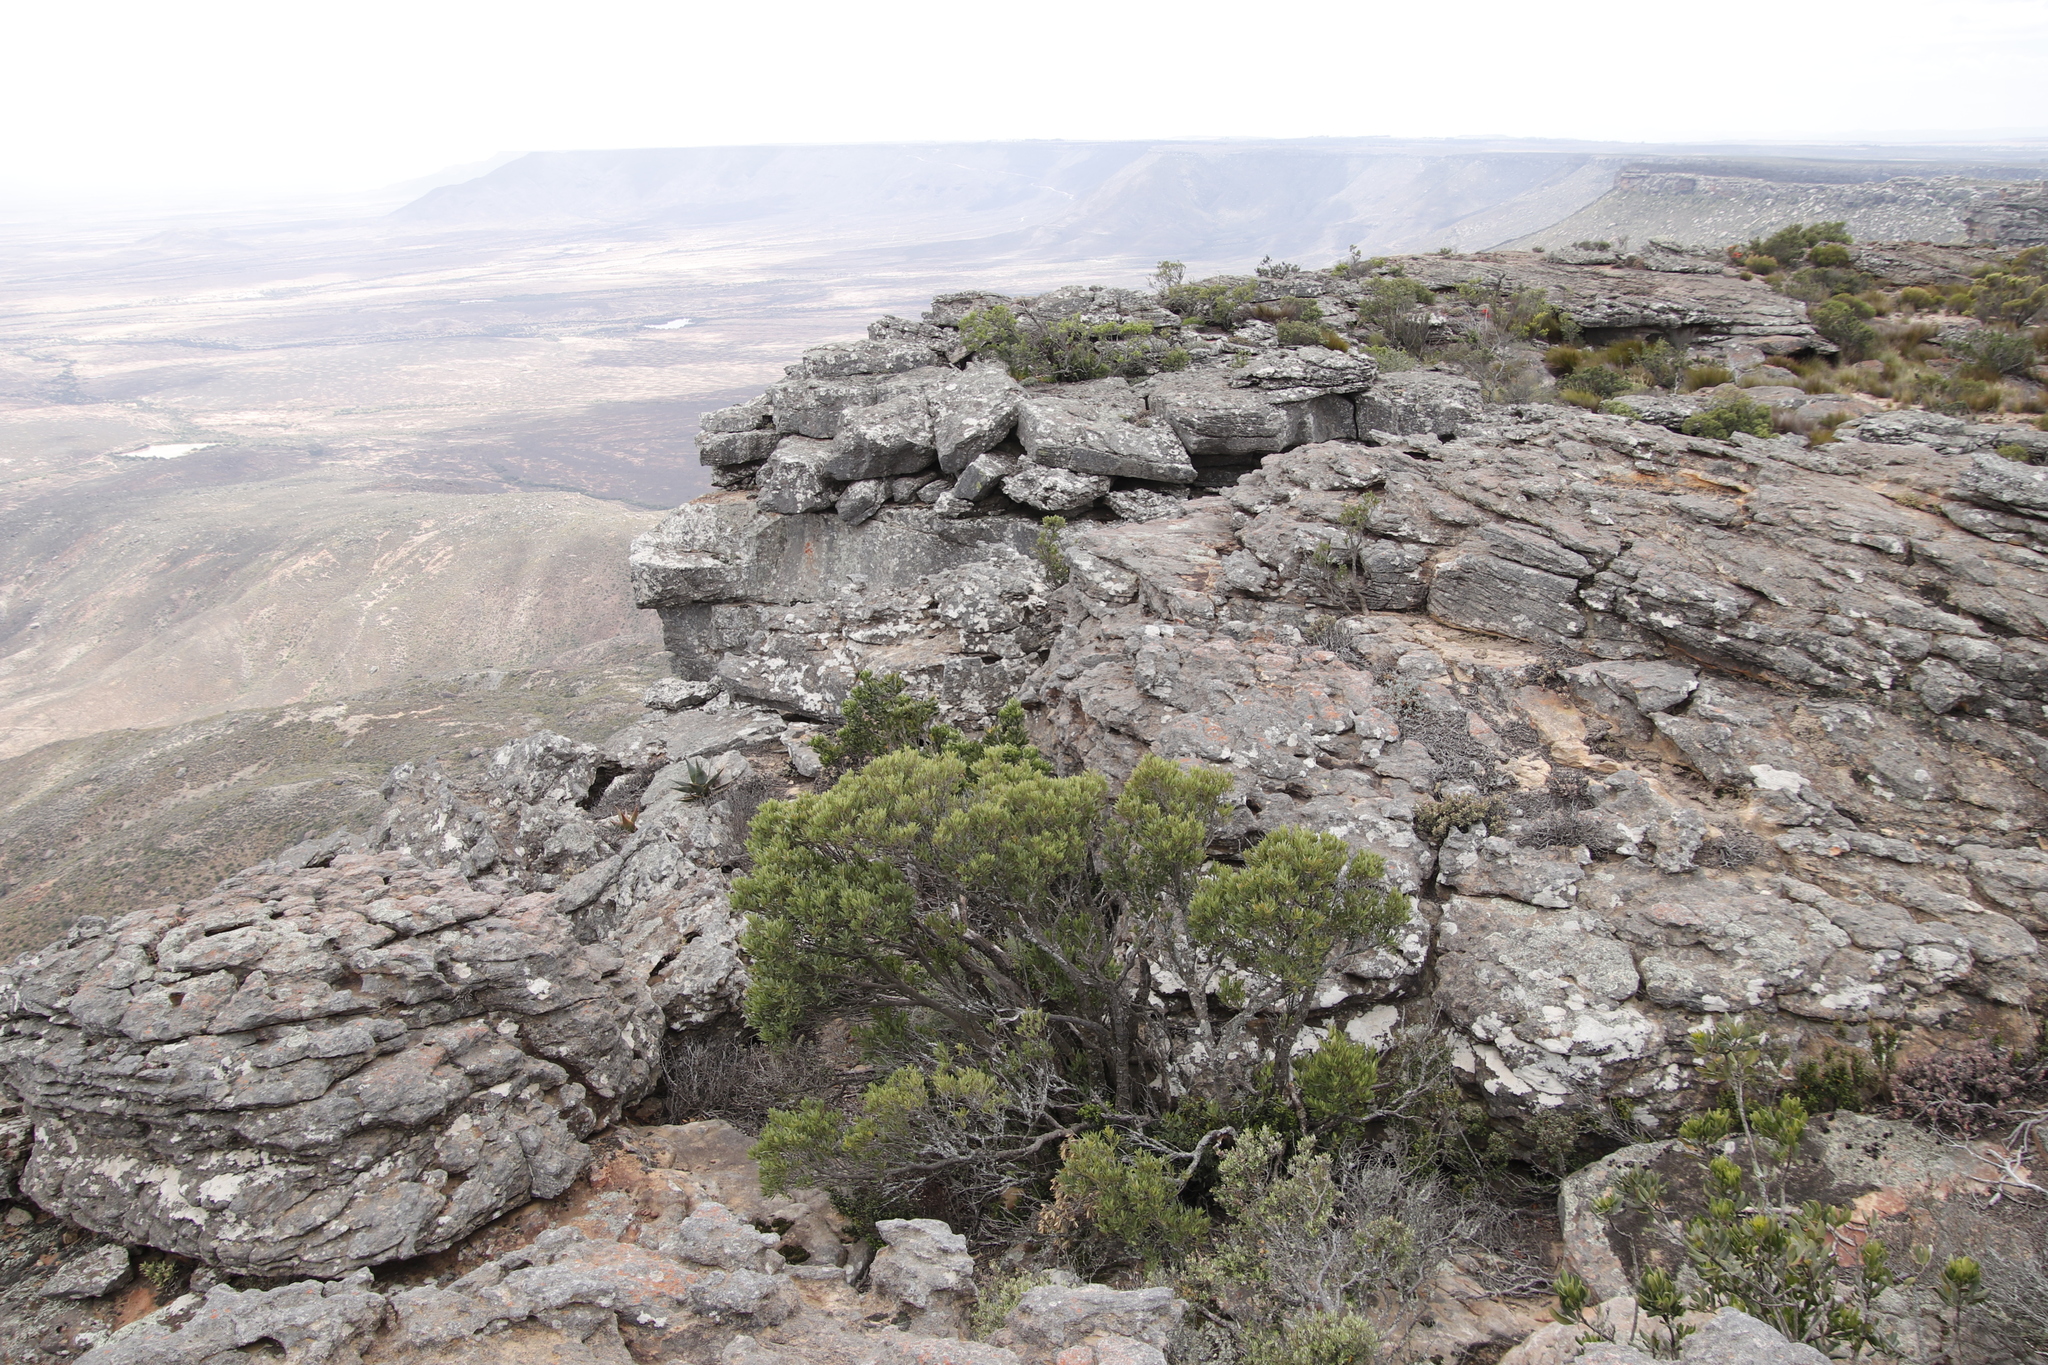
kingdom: Plantae
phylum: Tracheophyta
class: Magnoliopsida
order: Celastrales
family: Celastraceae
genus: Gymnosporia
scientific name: Gymnosporia laurina
